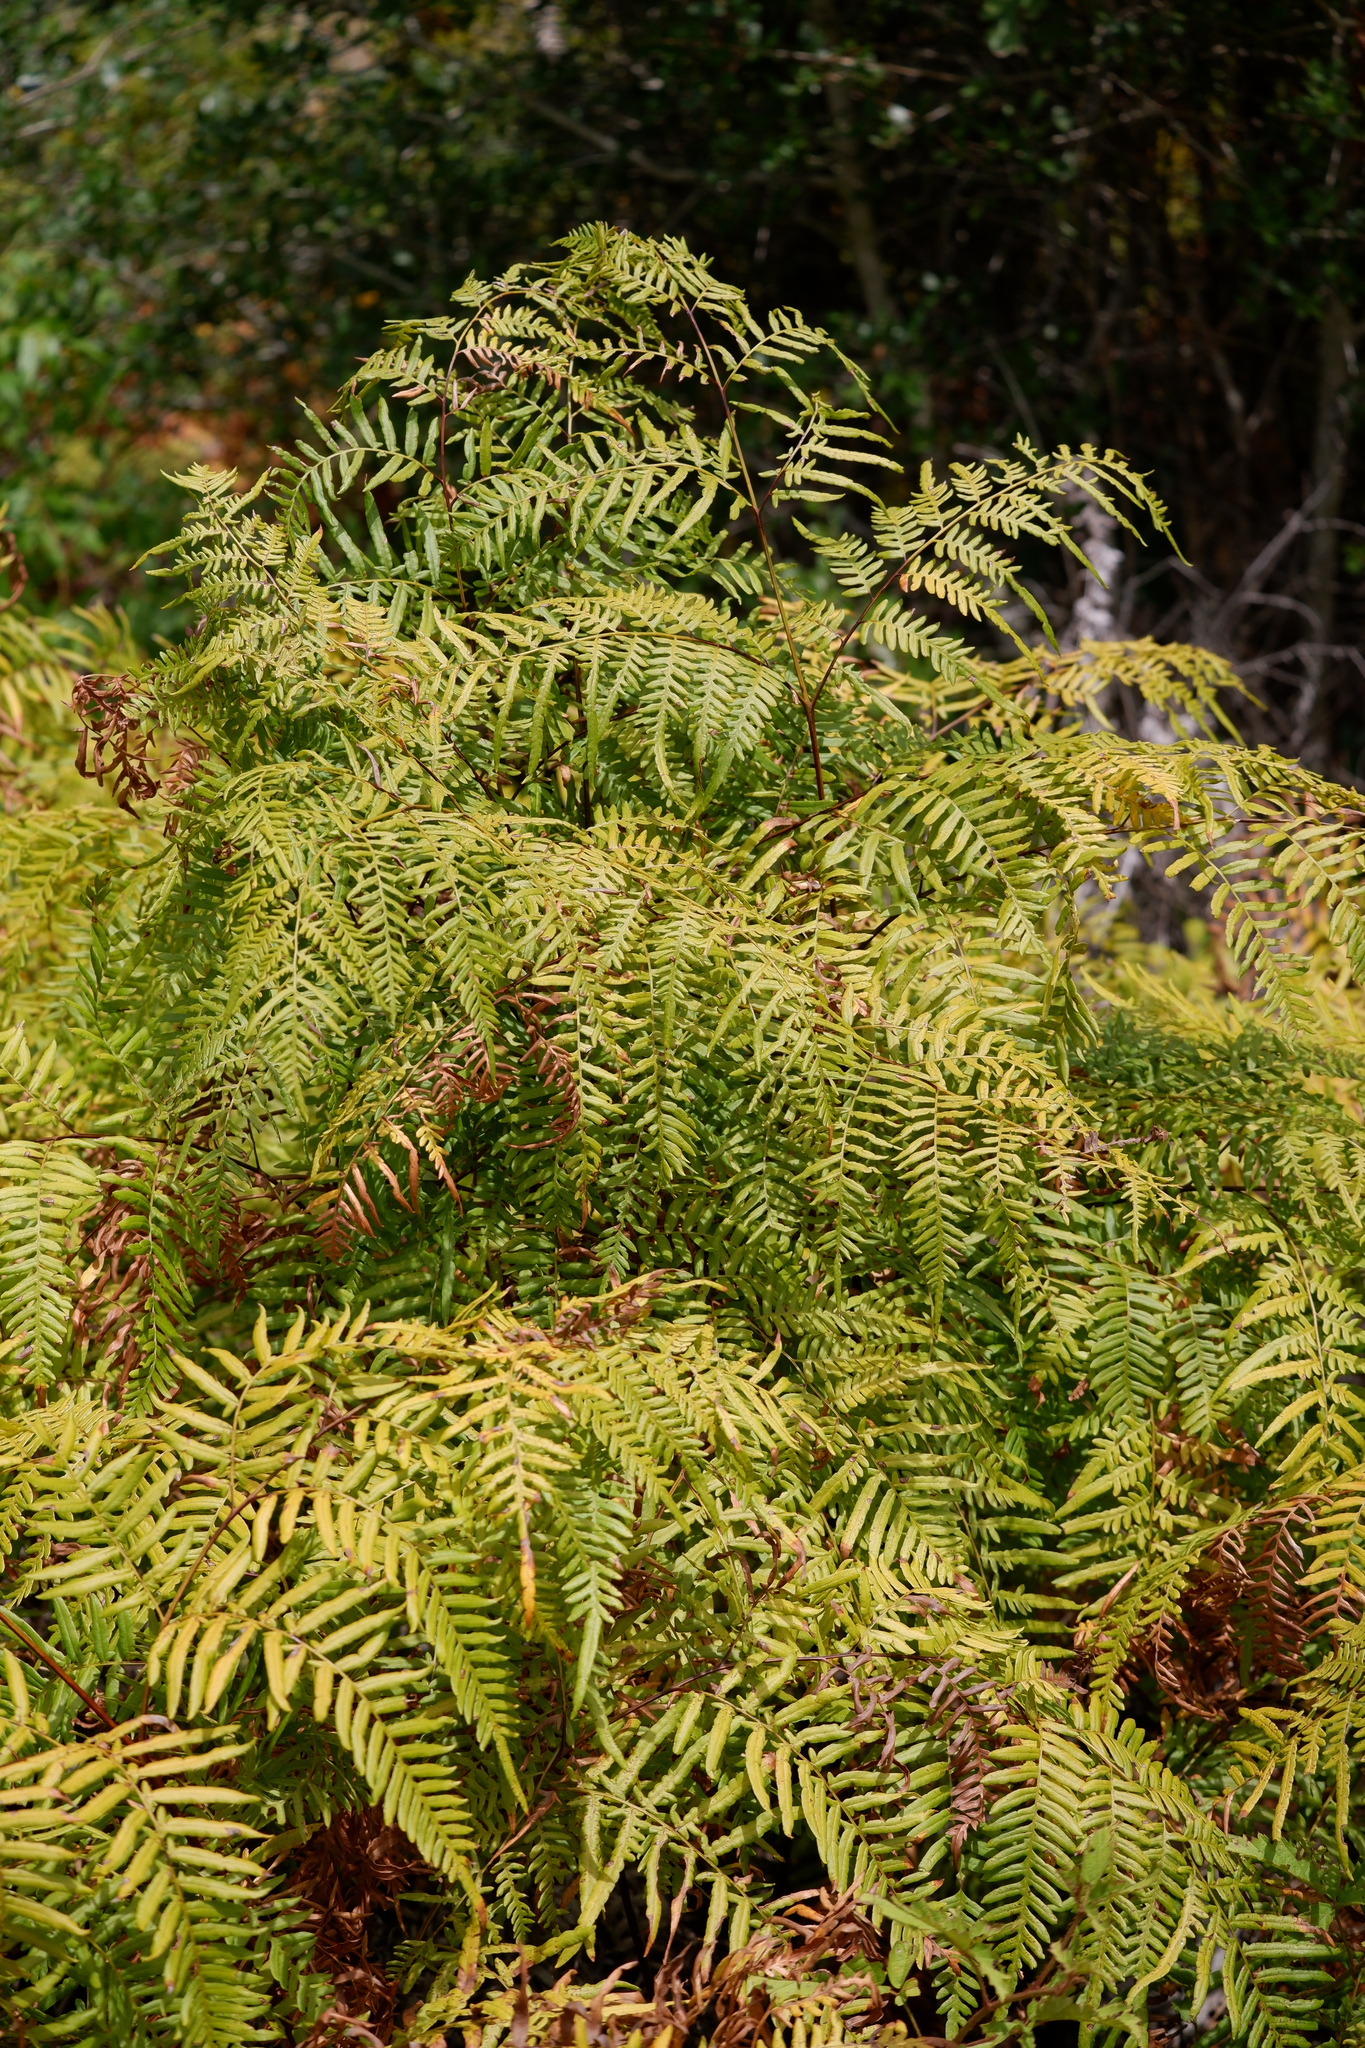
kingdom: Plantae
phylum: Tracheophyta
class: Polypodiopsida
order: Polypodiales
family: Dennstaedtiaceae
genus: Pteridium
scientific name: Pteridium
